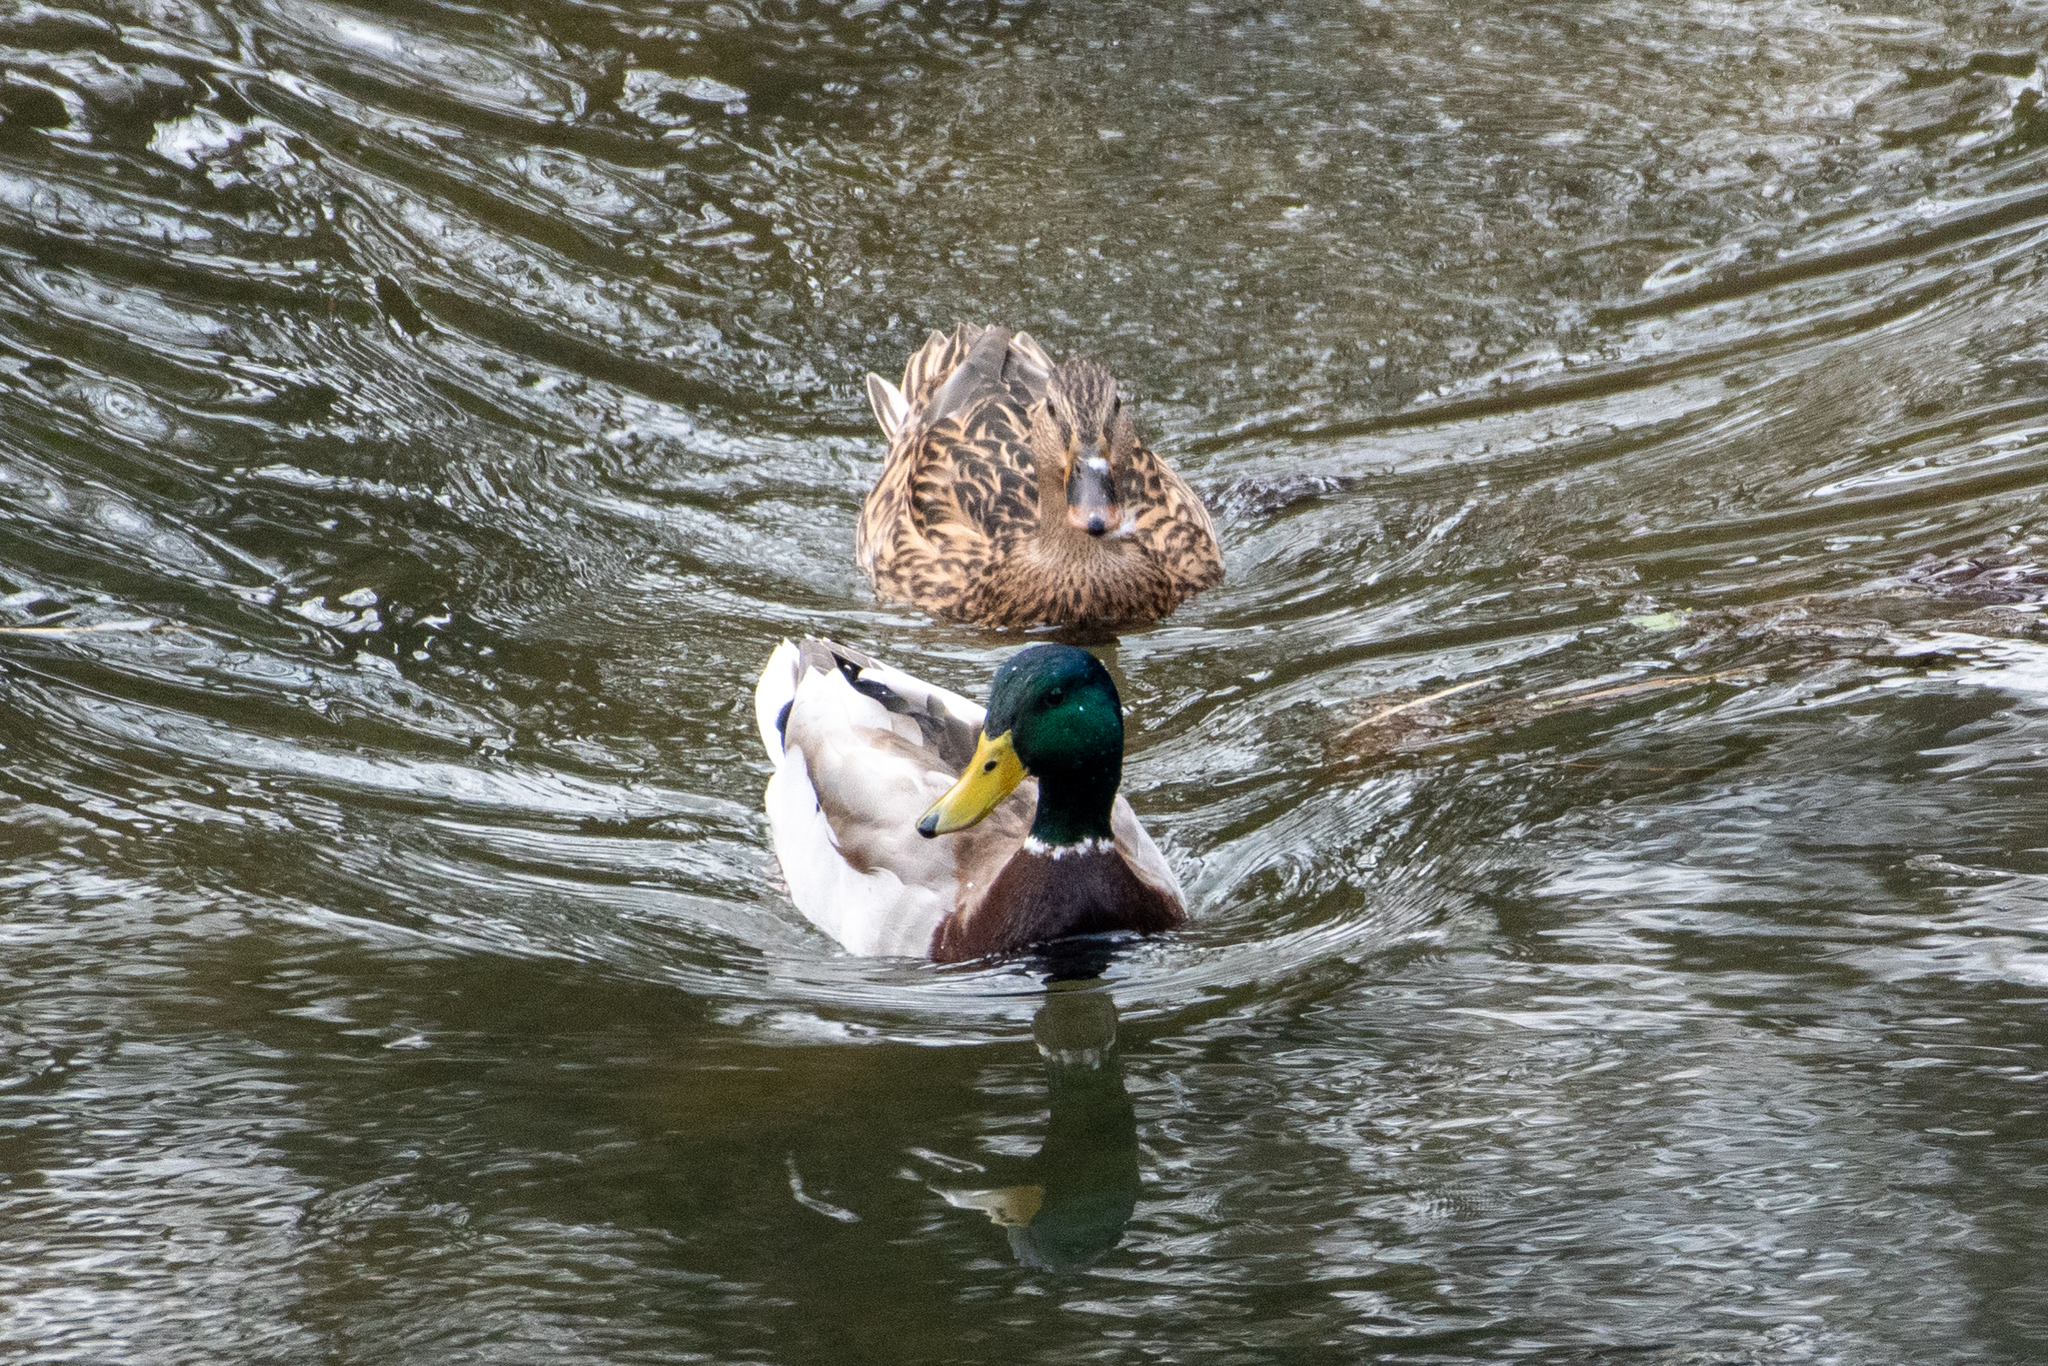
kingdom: Animalia
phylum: Chordata
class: Aves
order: Anseriformes
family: Anatidae
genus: Anas
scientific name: Anas platyrhynchos
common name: Mallard
